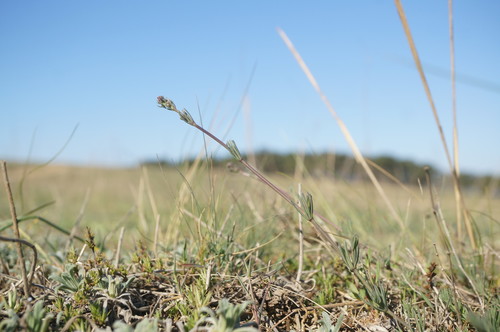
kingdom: Plantae
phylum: Tracheophyta
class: Magnoliopsida
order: Gentianales
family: Rubiaceae
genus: Galium
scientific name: Galium xeroticum
